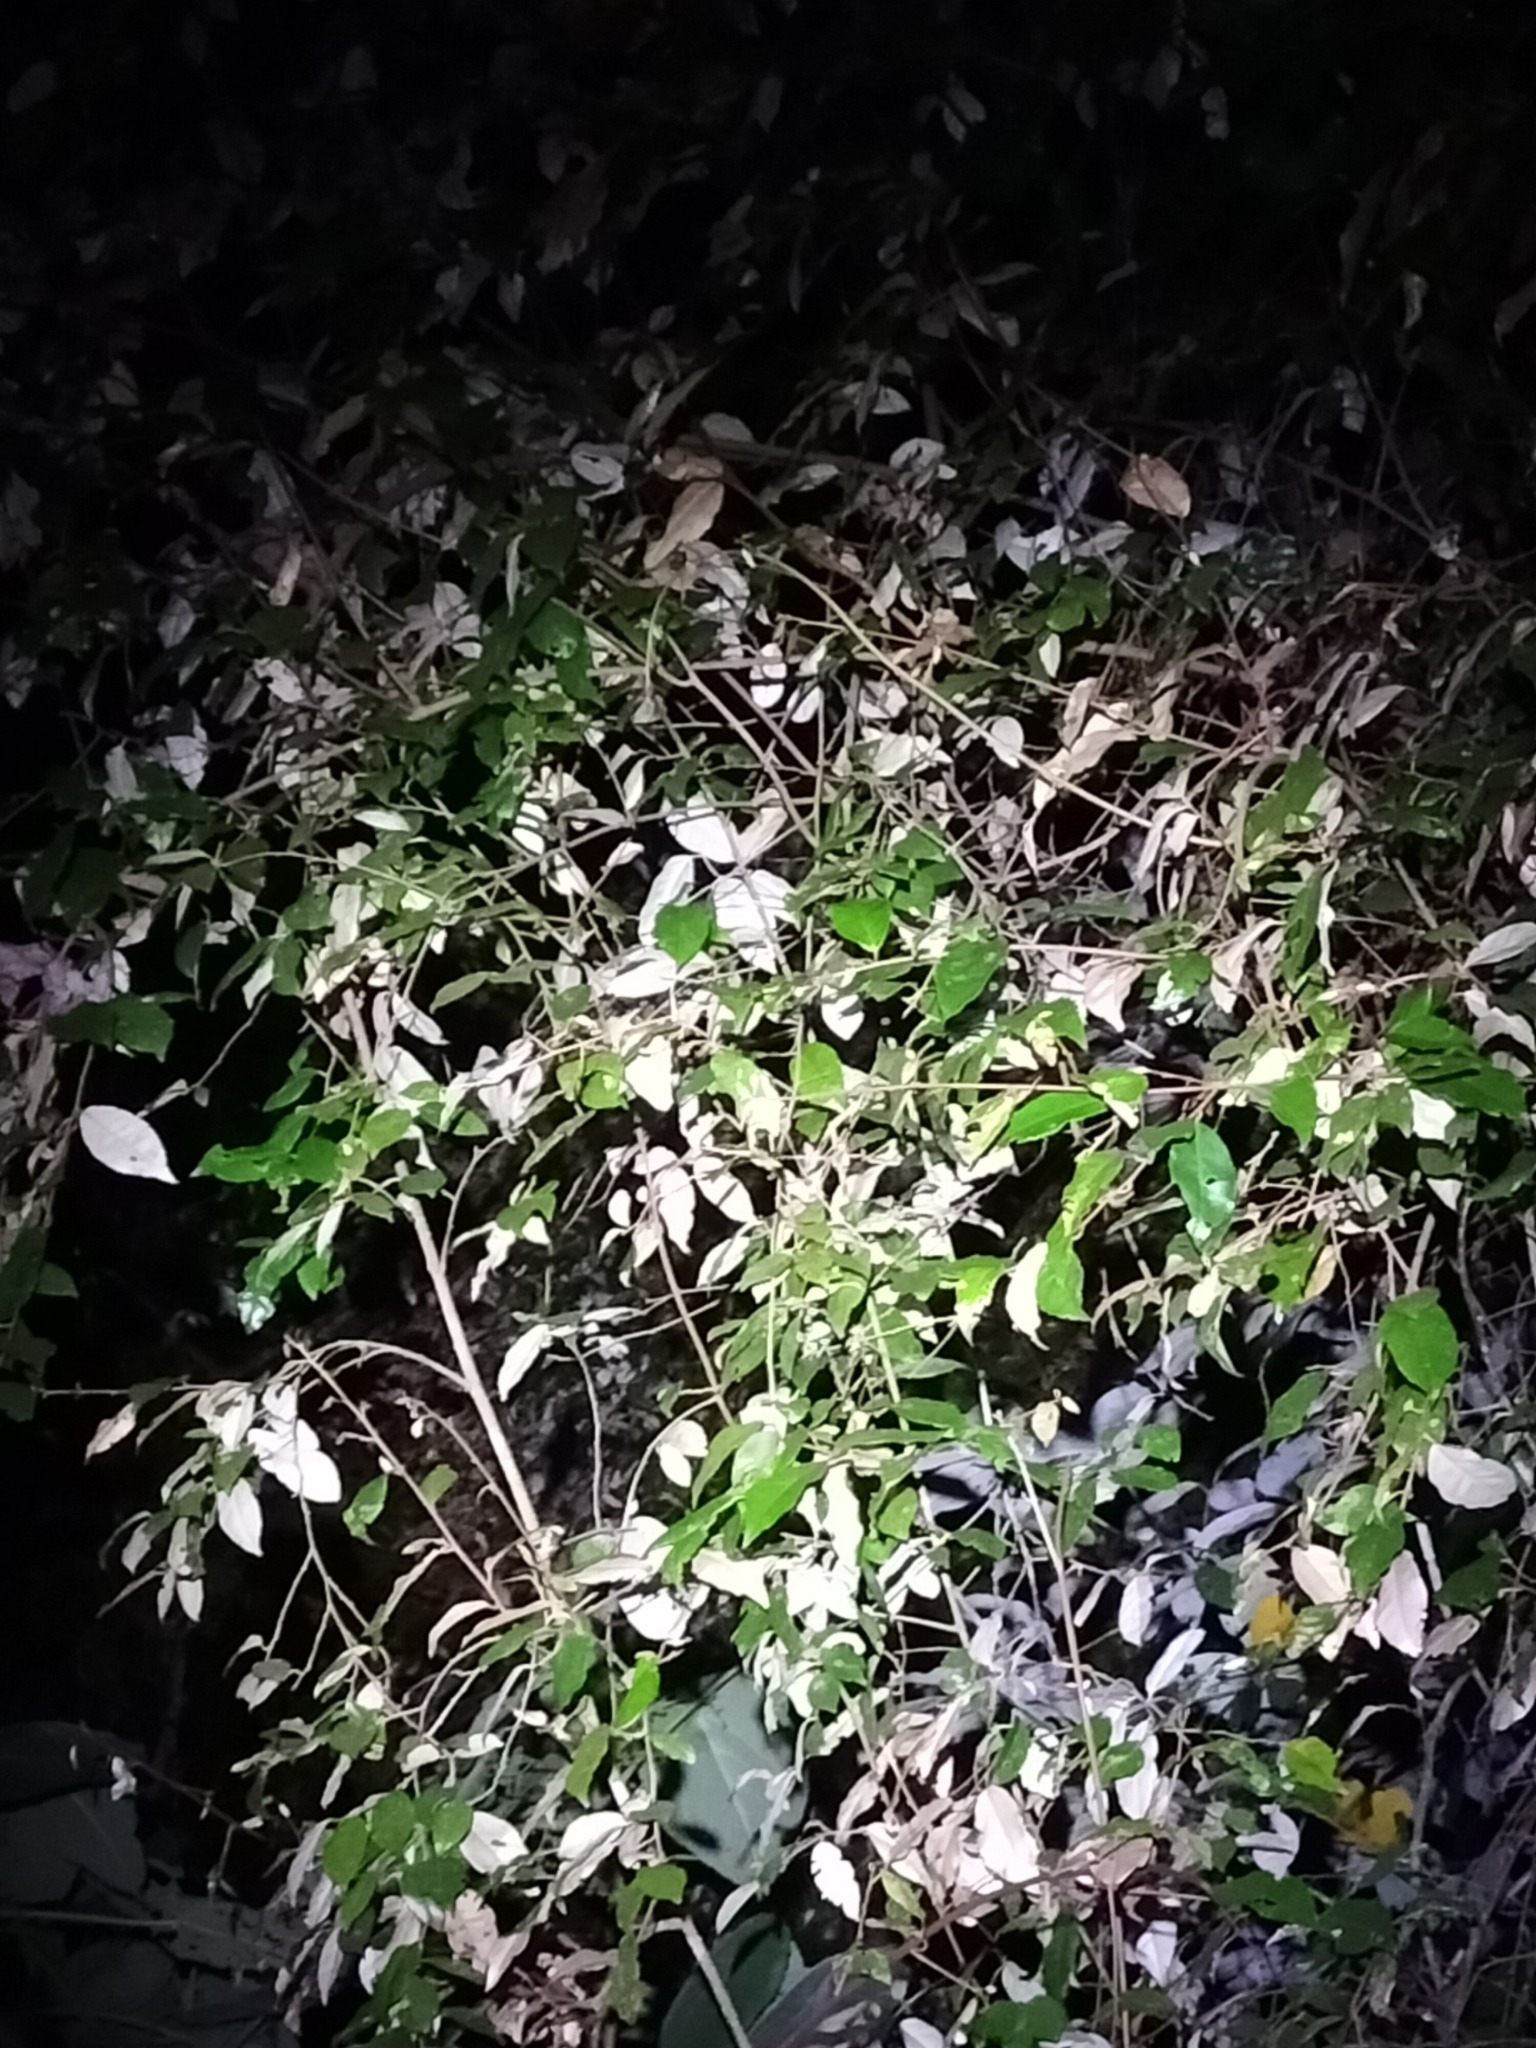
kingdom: Plantae
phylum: Tracheophyta
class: Magnoliopsida
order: Rosales
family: Elaeagnaceae
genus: Elaeagnus
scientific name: Elaeagnus triflora
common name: Millaa millaa-vine
